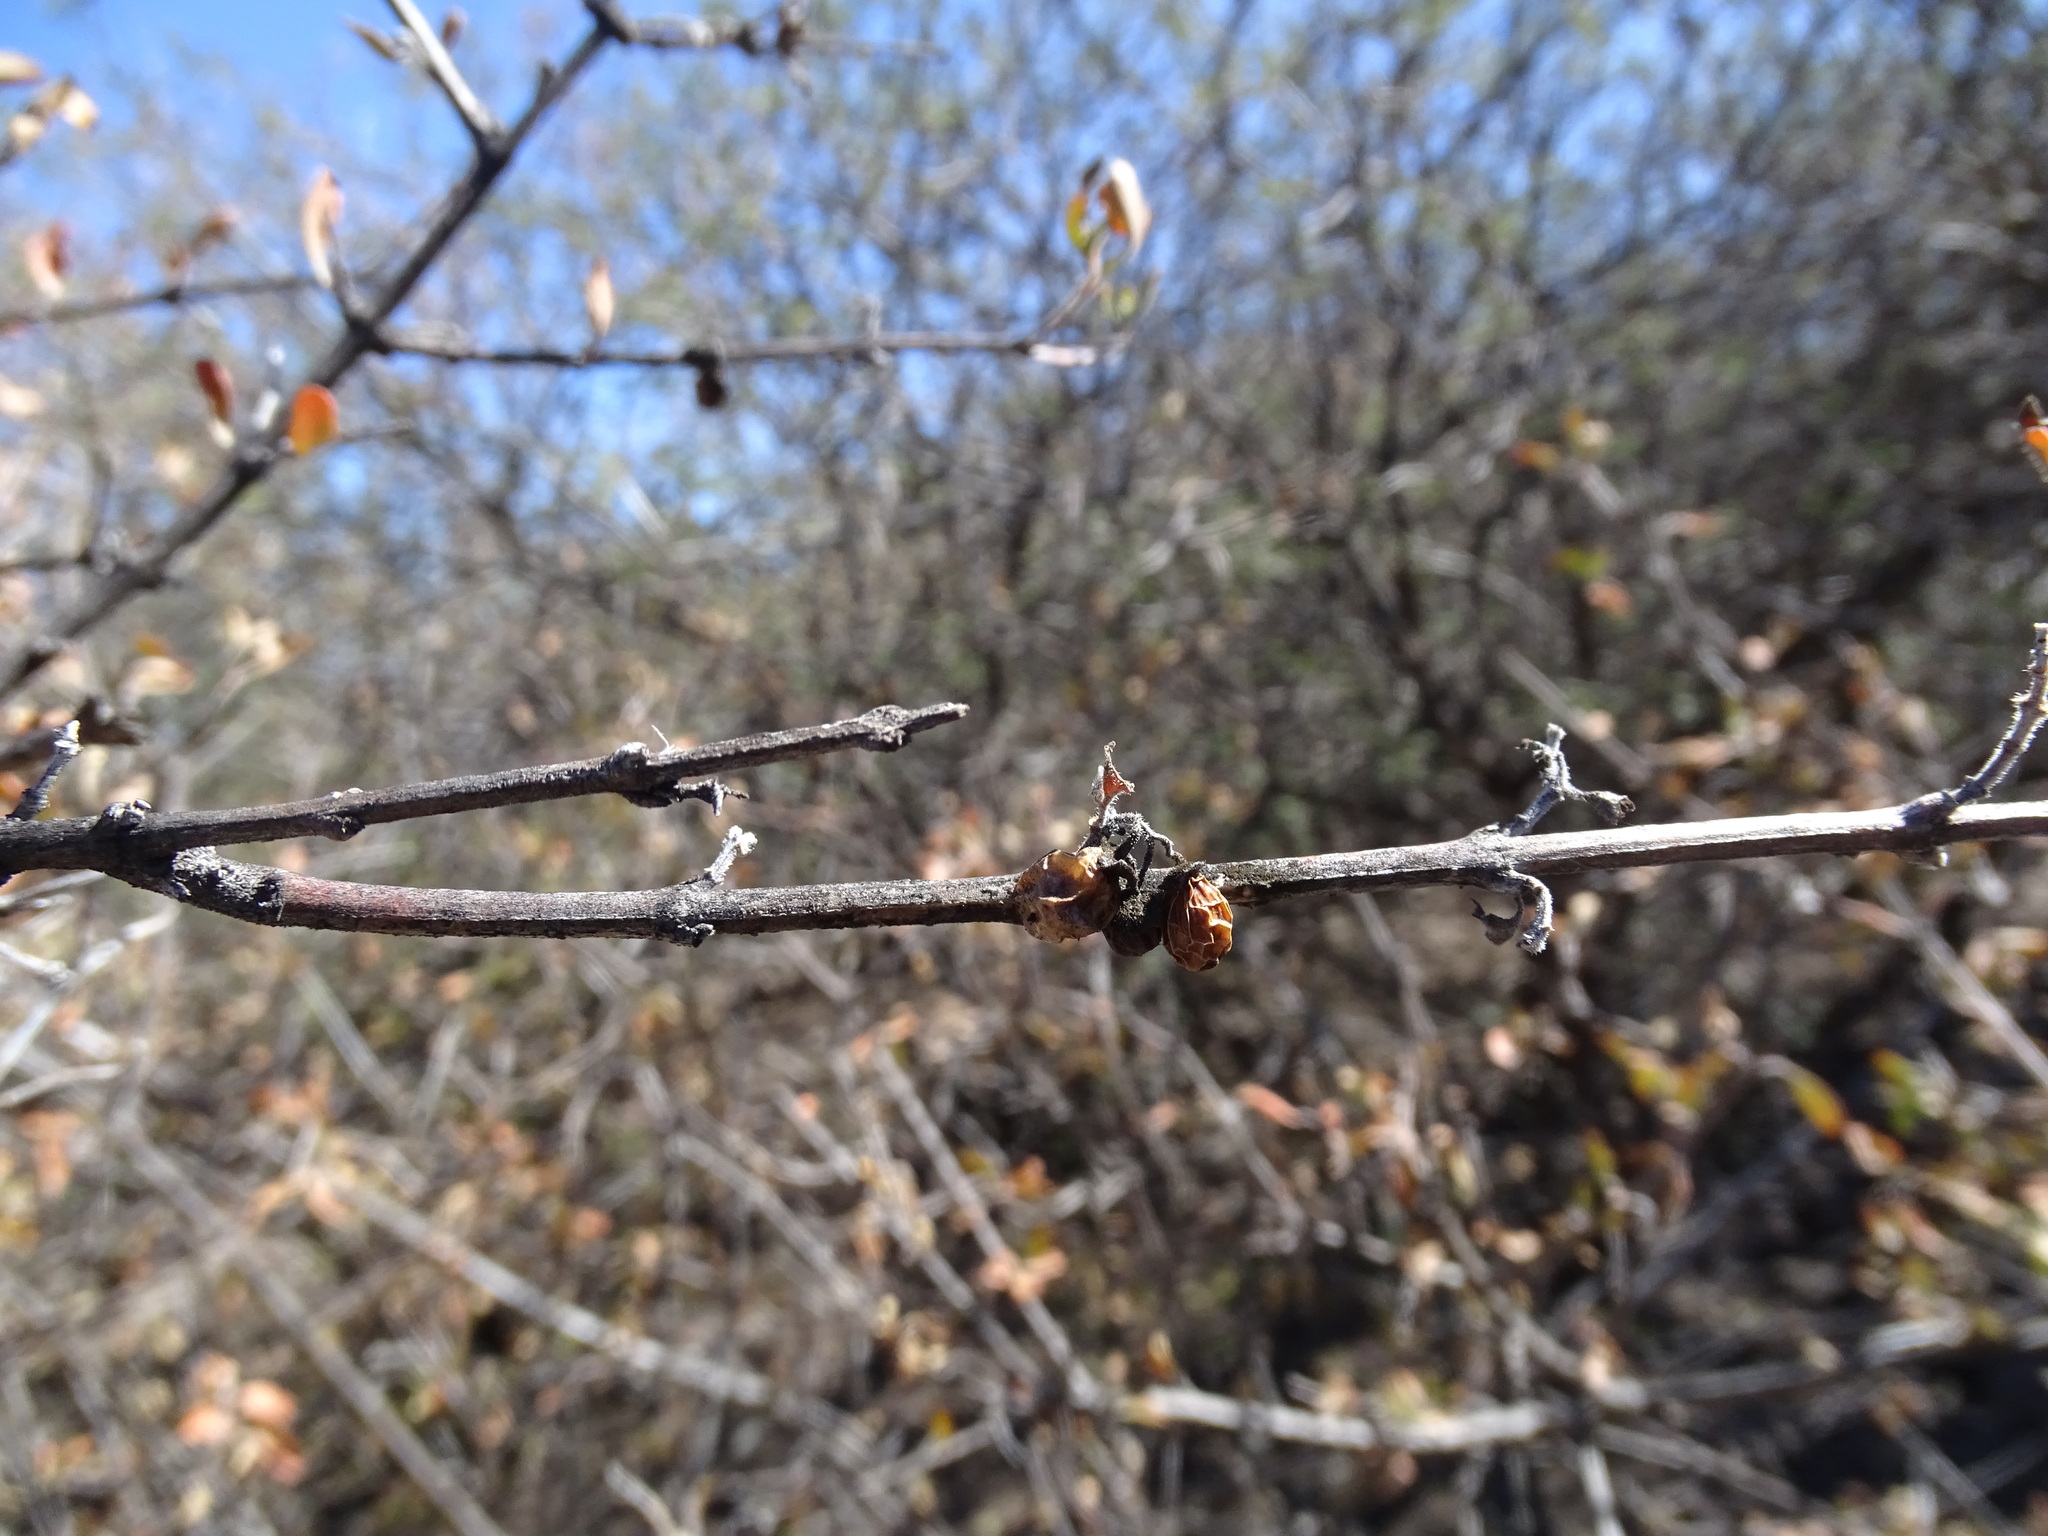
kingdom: Plantae
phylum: Tracheophyta
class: Magnoliopsida
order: Lamiales
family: Verbenaceae
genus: Citharexylum
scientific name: Citharexylum racemosum
